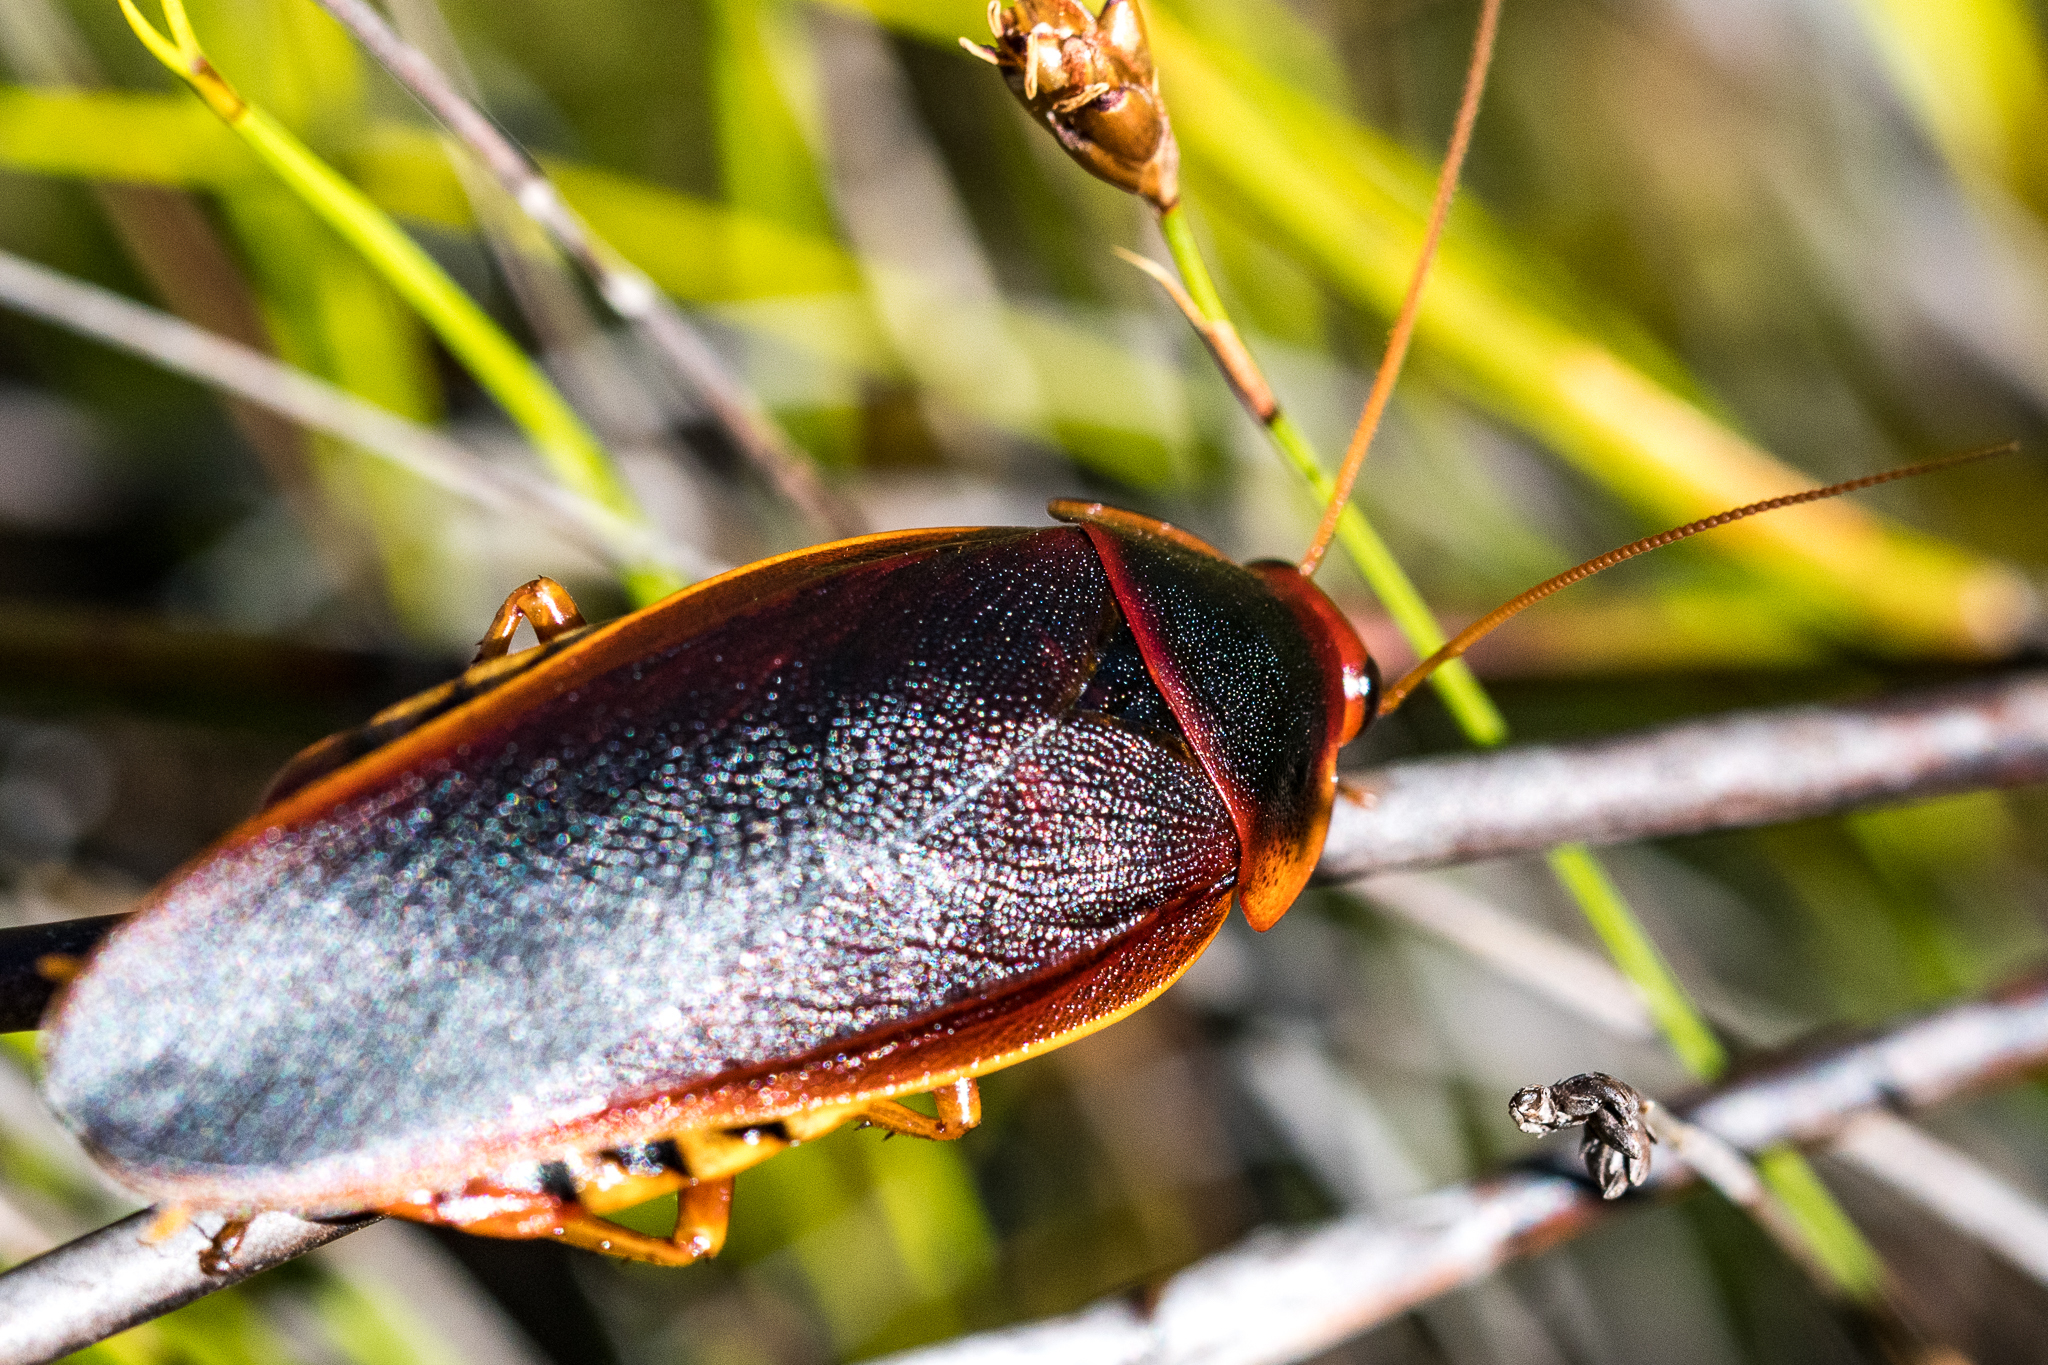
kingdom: Animalia
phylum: Arthropoda
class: Insecta
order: Blattodea
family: Blaberidae
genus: Aptera
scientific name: Aptera fusca
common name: Cape mountain cockroach
